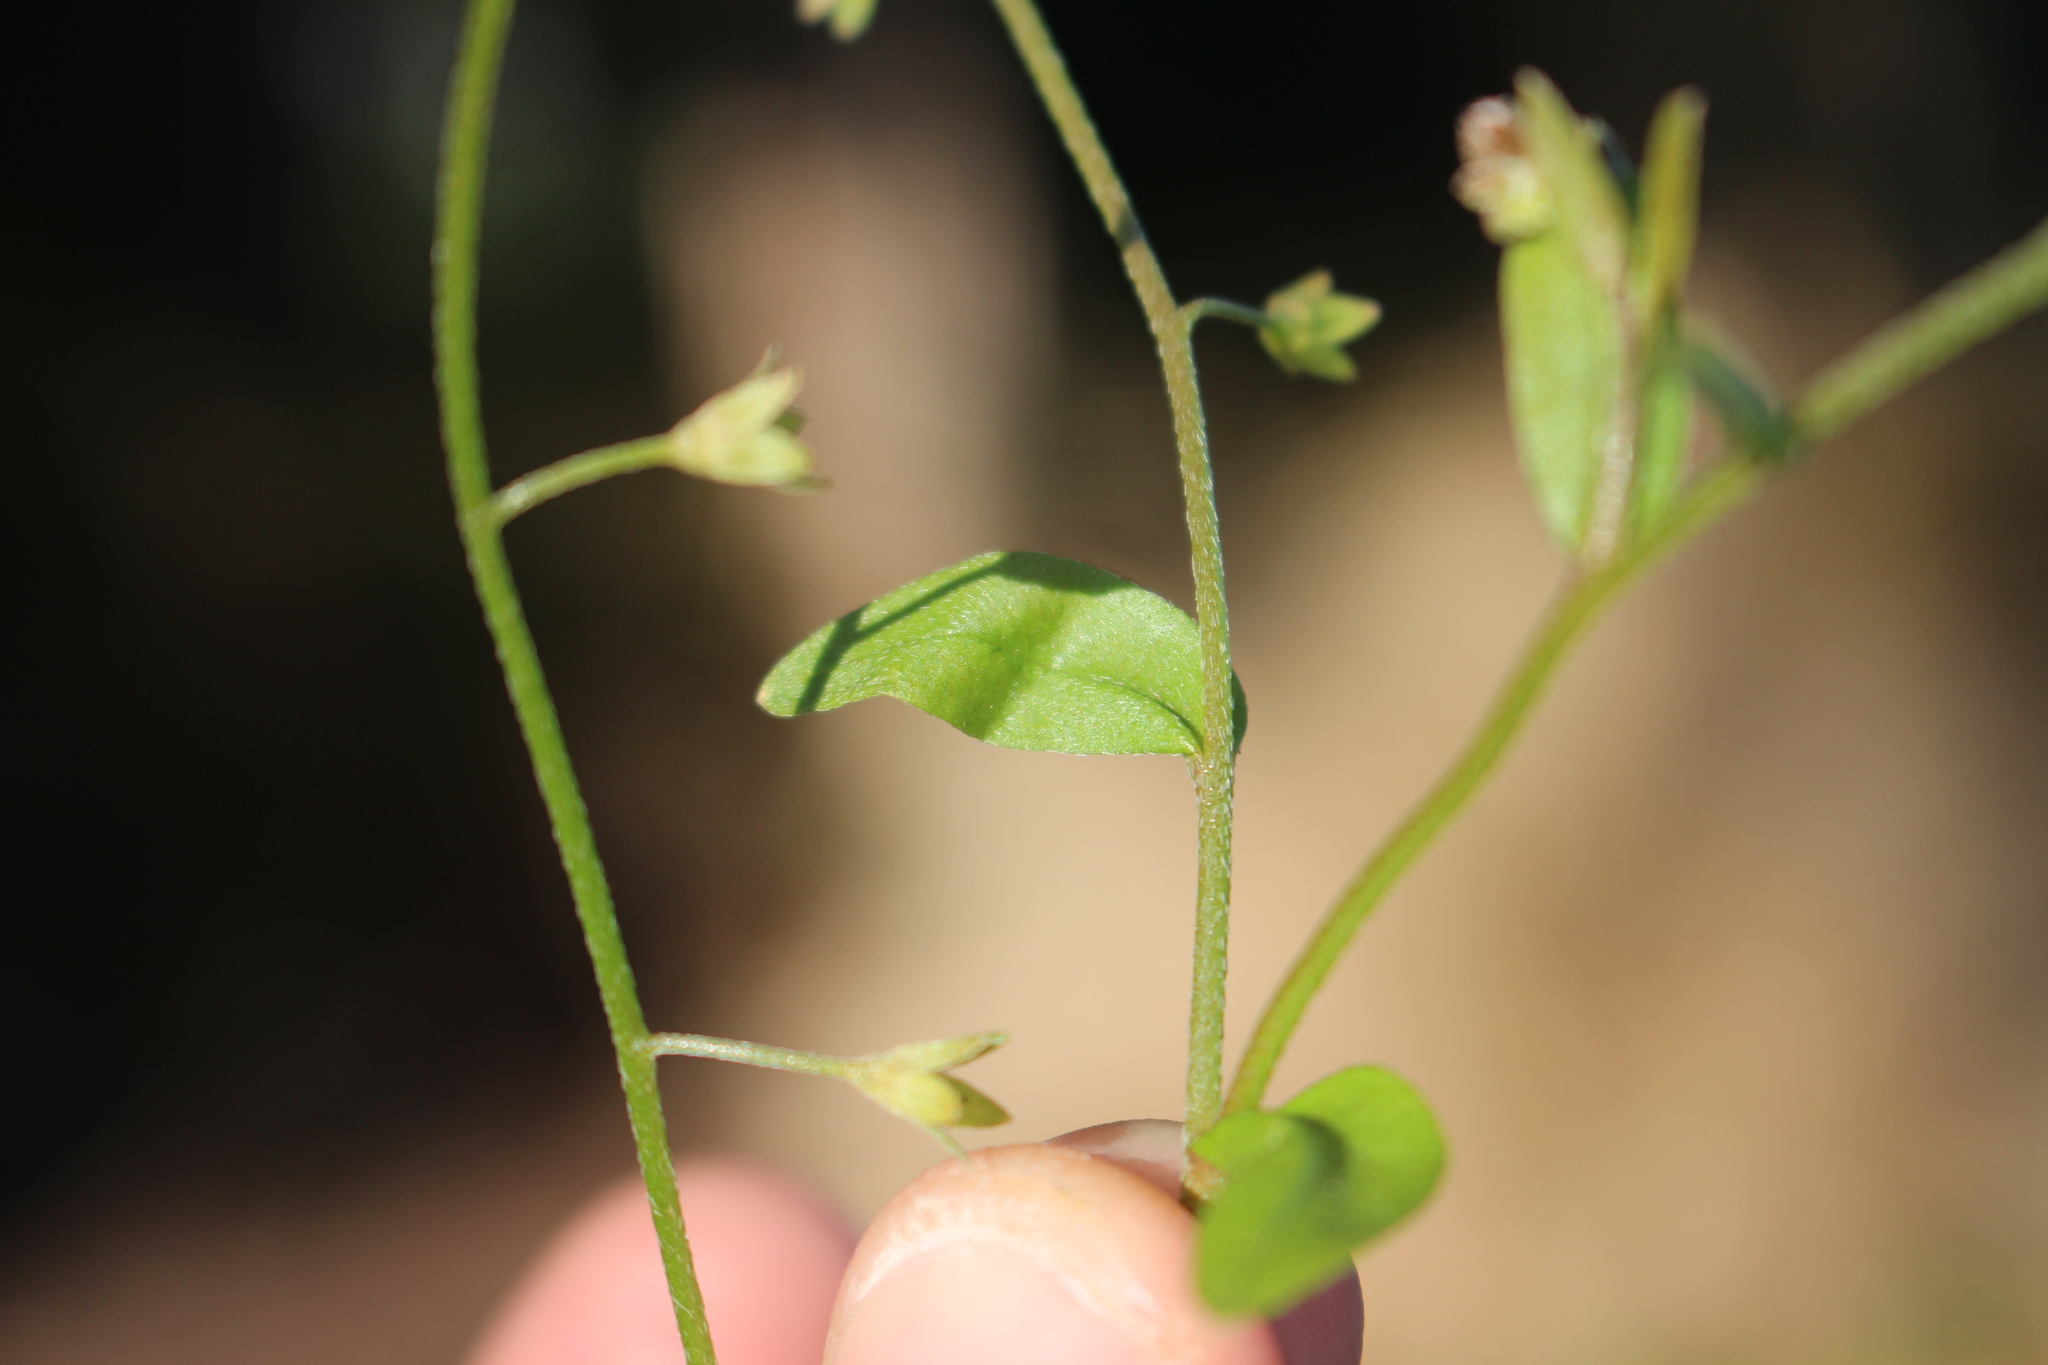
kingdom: Plantae
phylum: Tracheophyta
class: Magnoliopsida
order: Boraginales
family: Boraginaceae
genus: Myosotis
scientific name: Myosotis laxa
